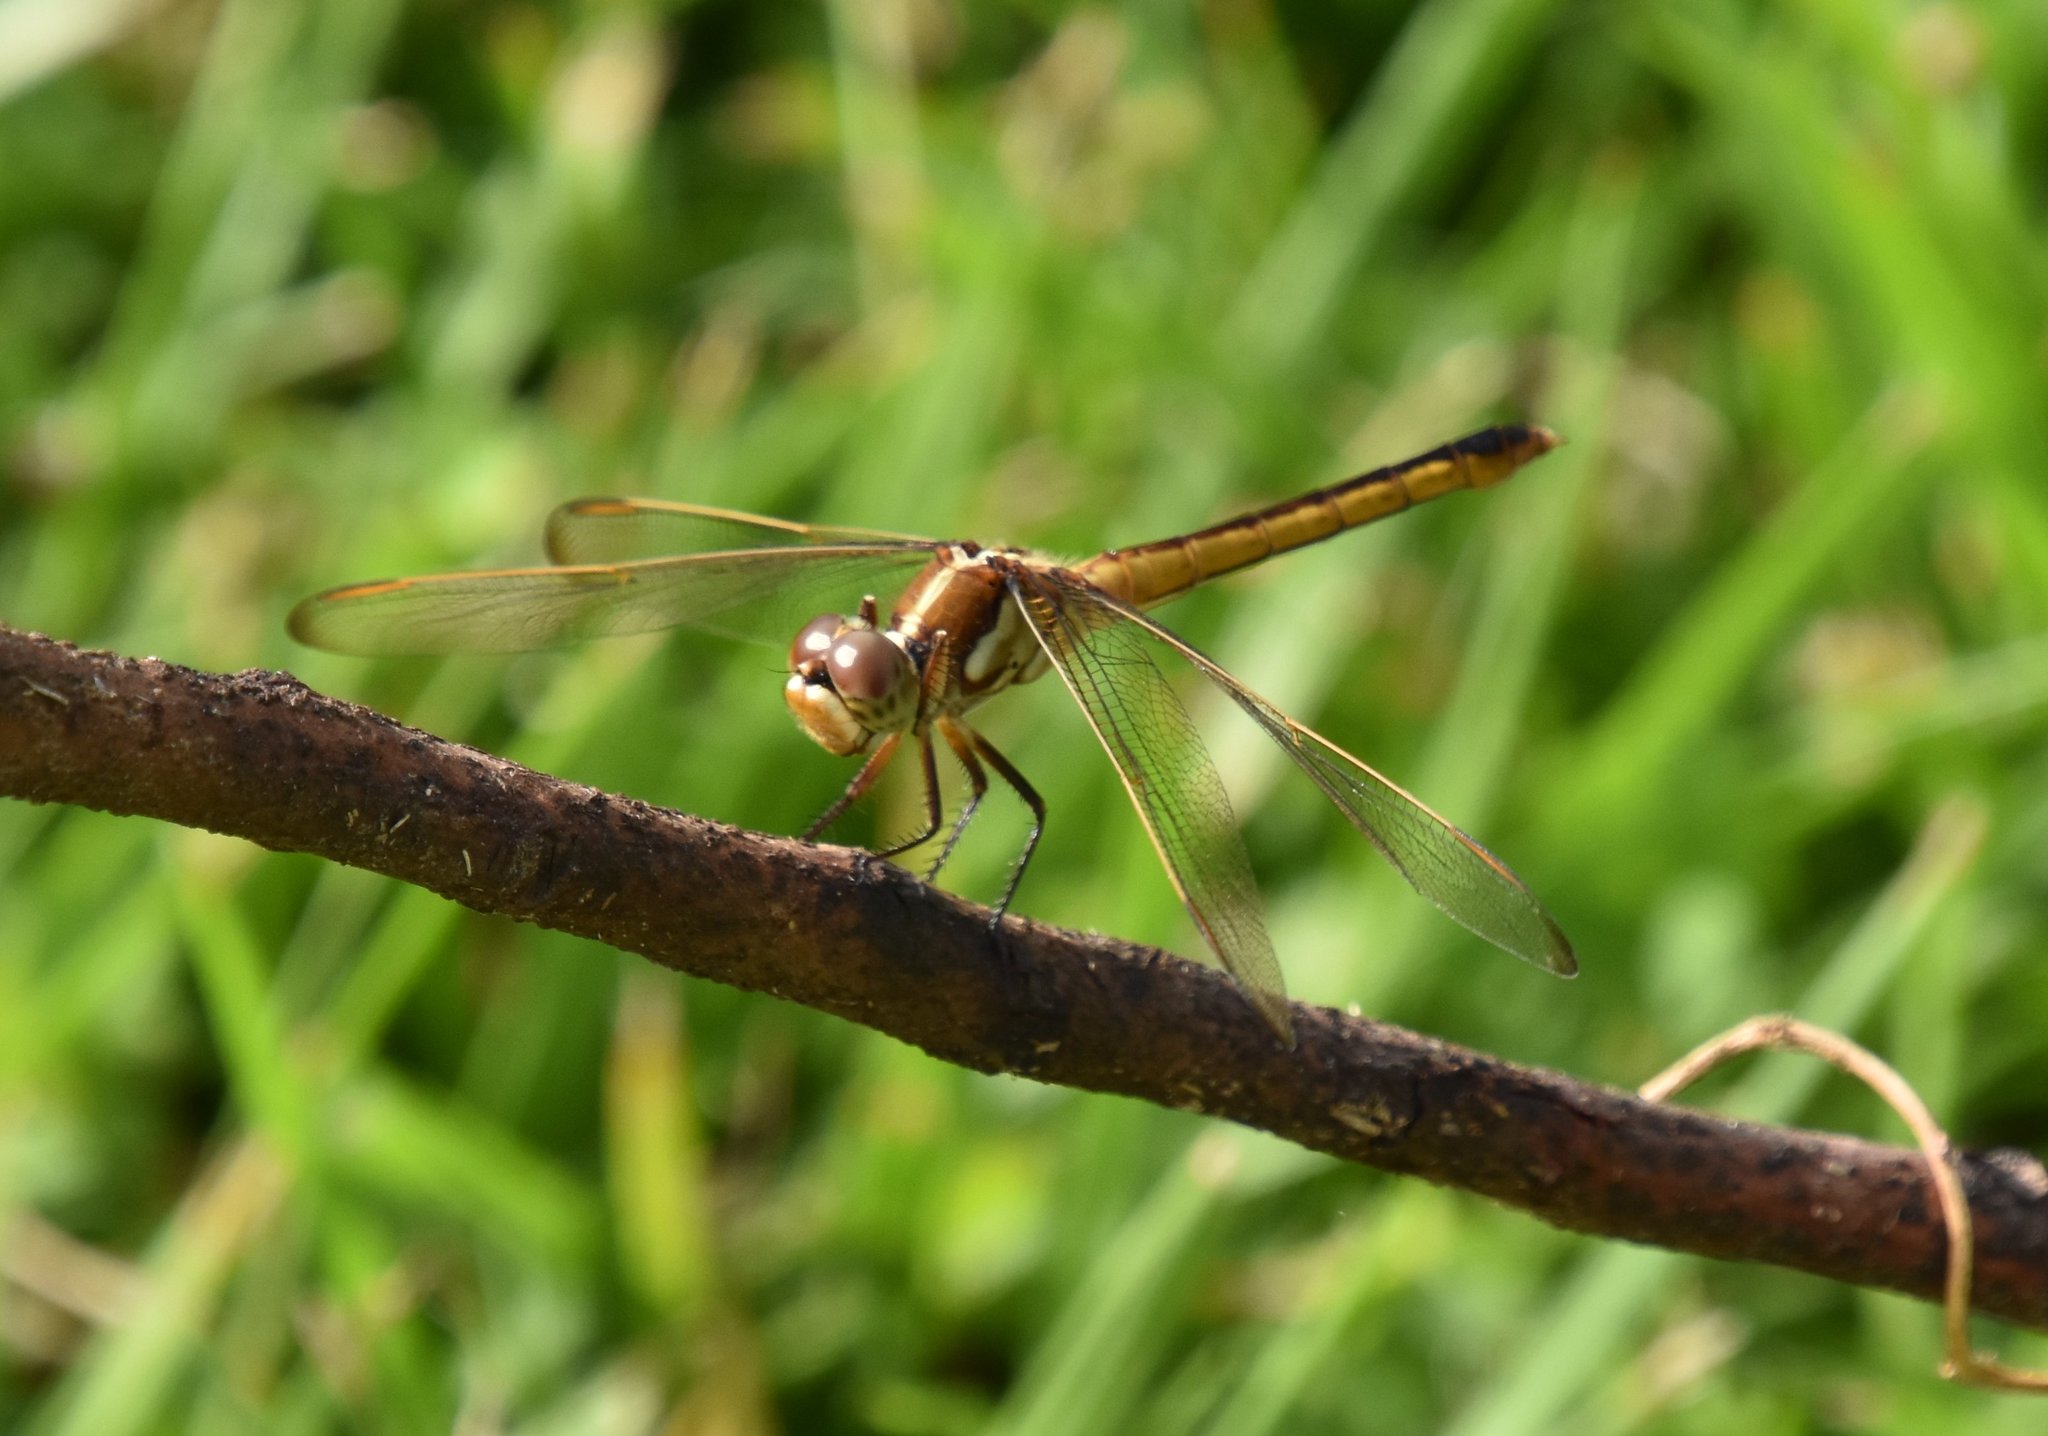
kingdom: Animalia
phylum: Arthropoda
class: Insecta
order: Odonata
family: Libellulidae
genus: Libellula
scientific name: Libellula auripennis
